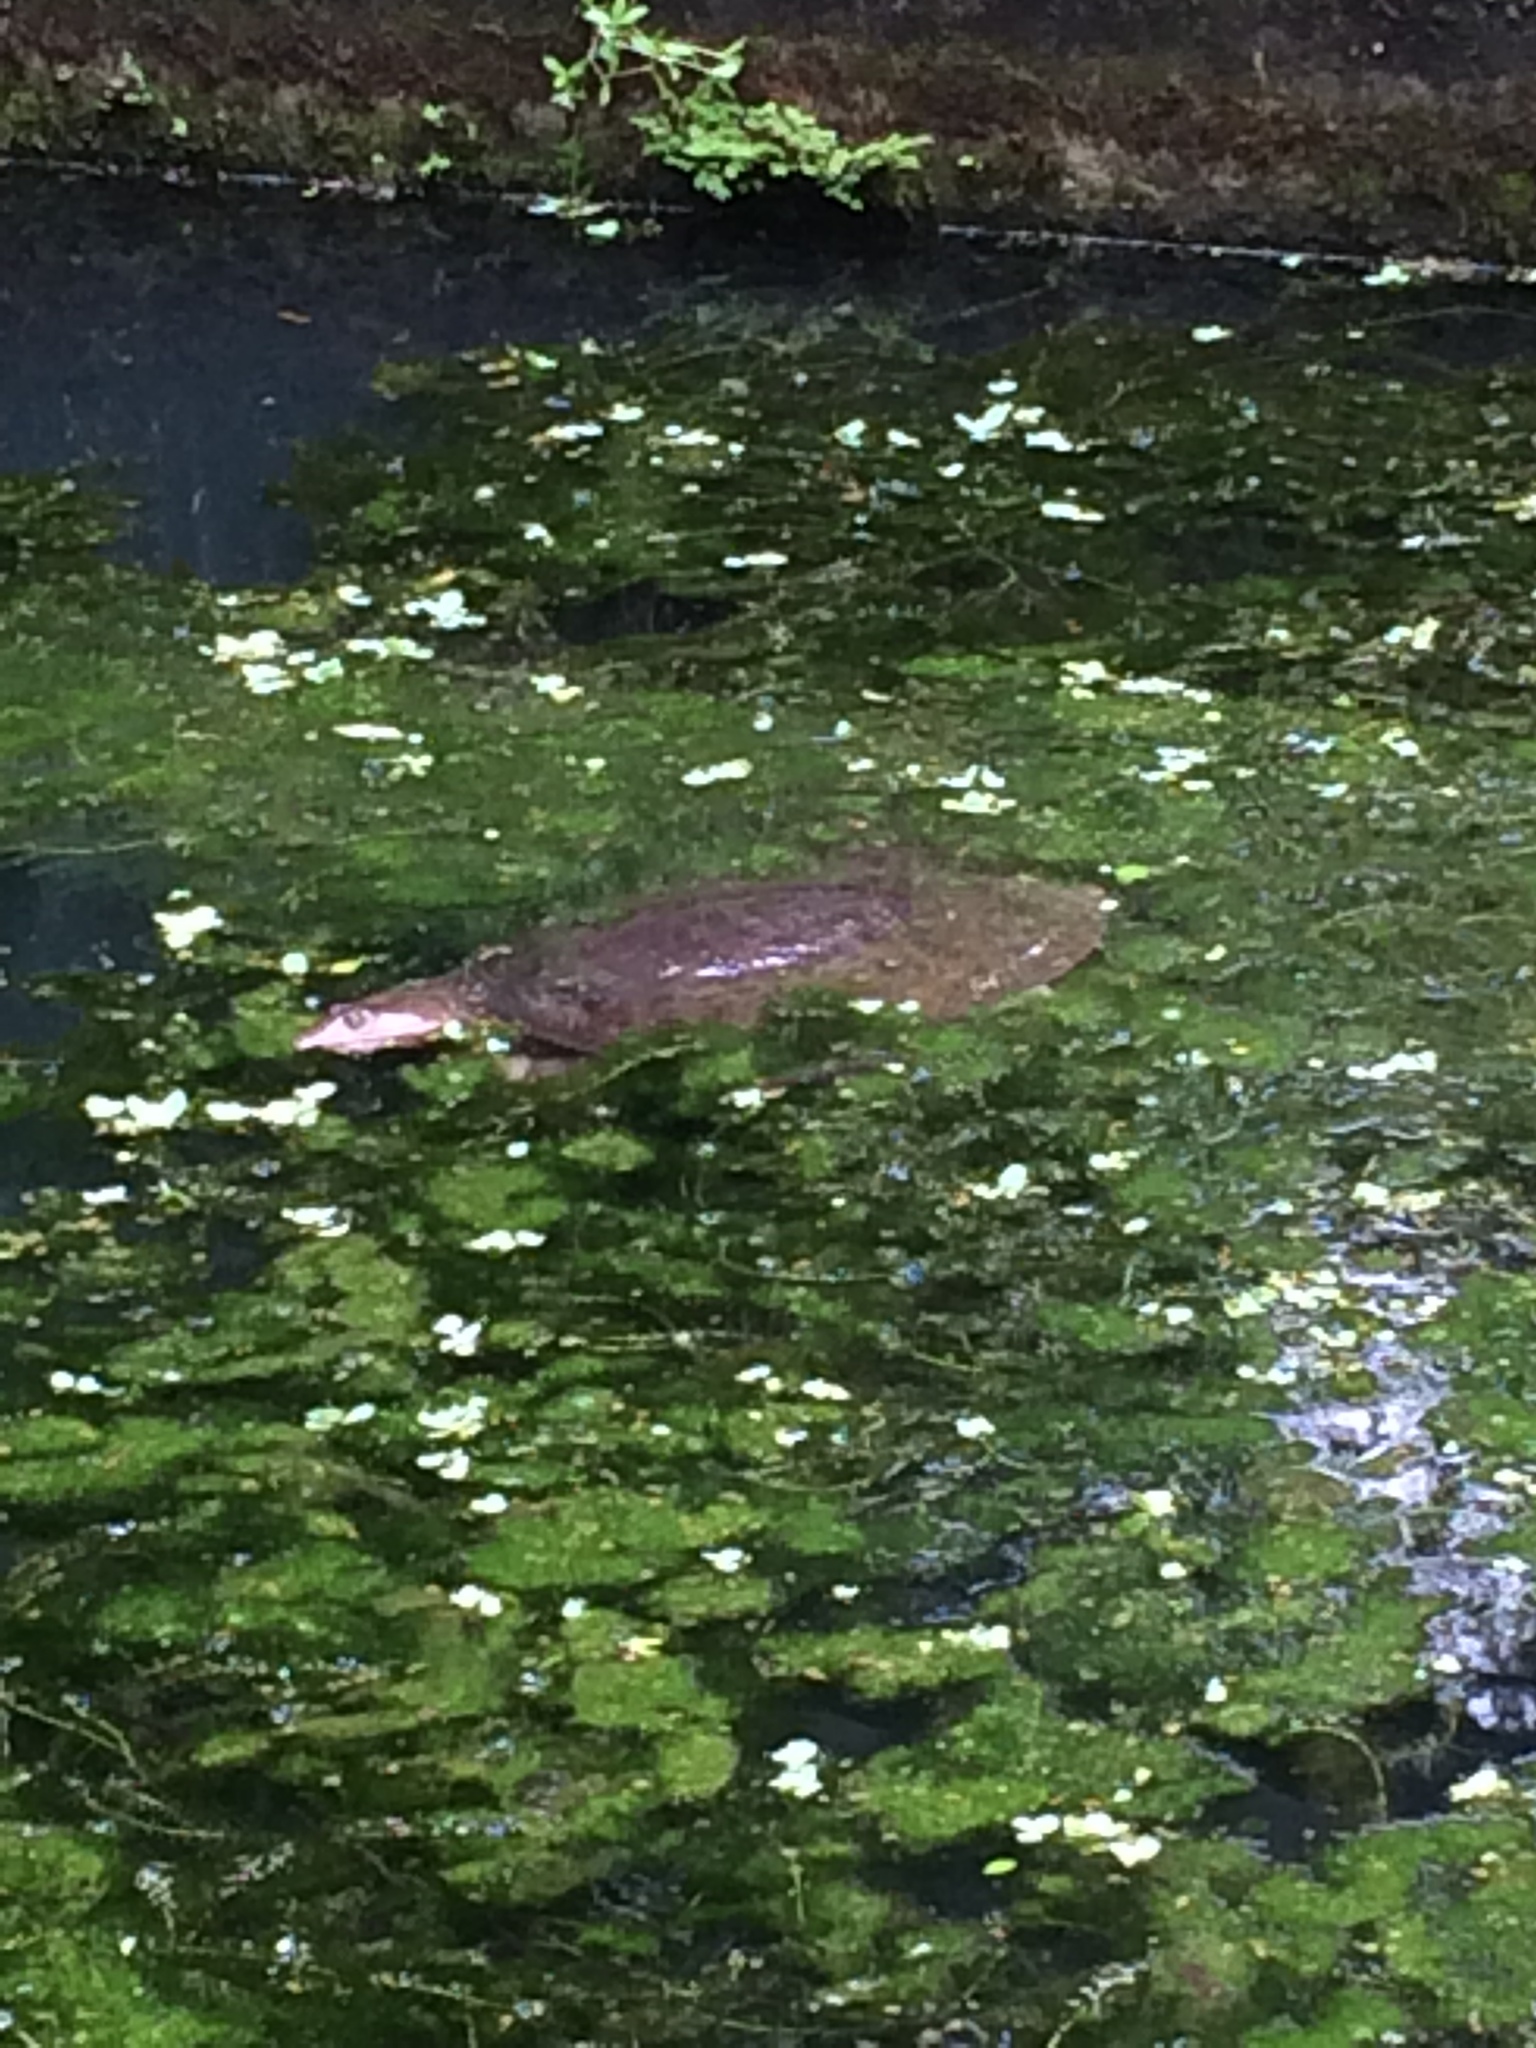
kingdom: Animalia
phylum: Chordata
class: Testudines
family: Trionychidae
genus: Apalone
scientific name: Apalone ferox
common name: Florida softshell turtle
